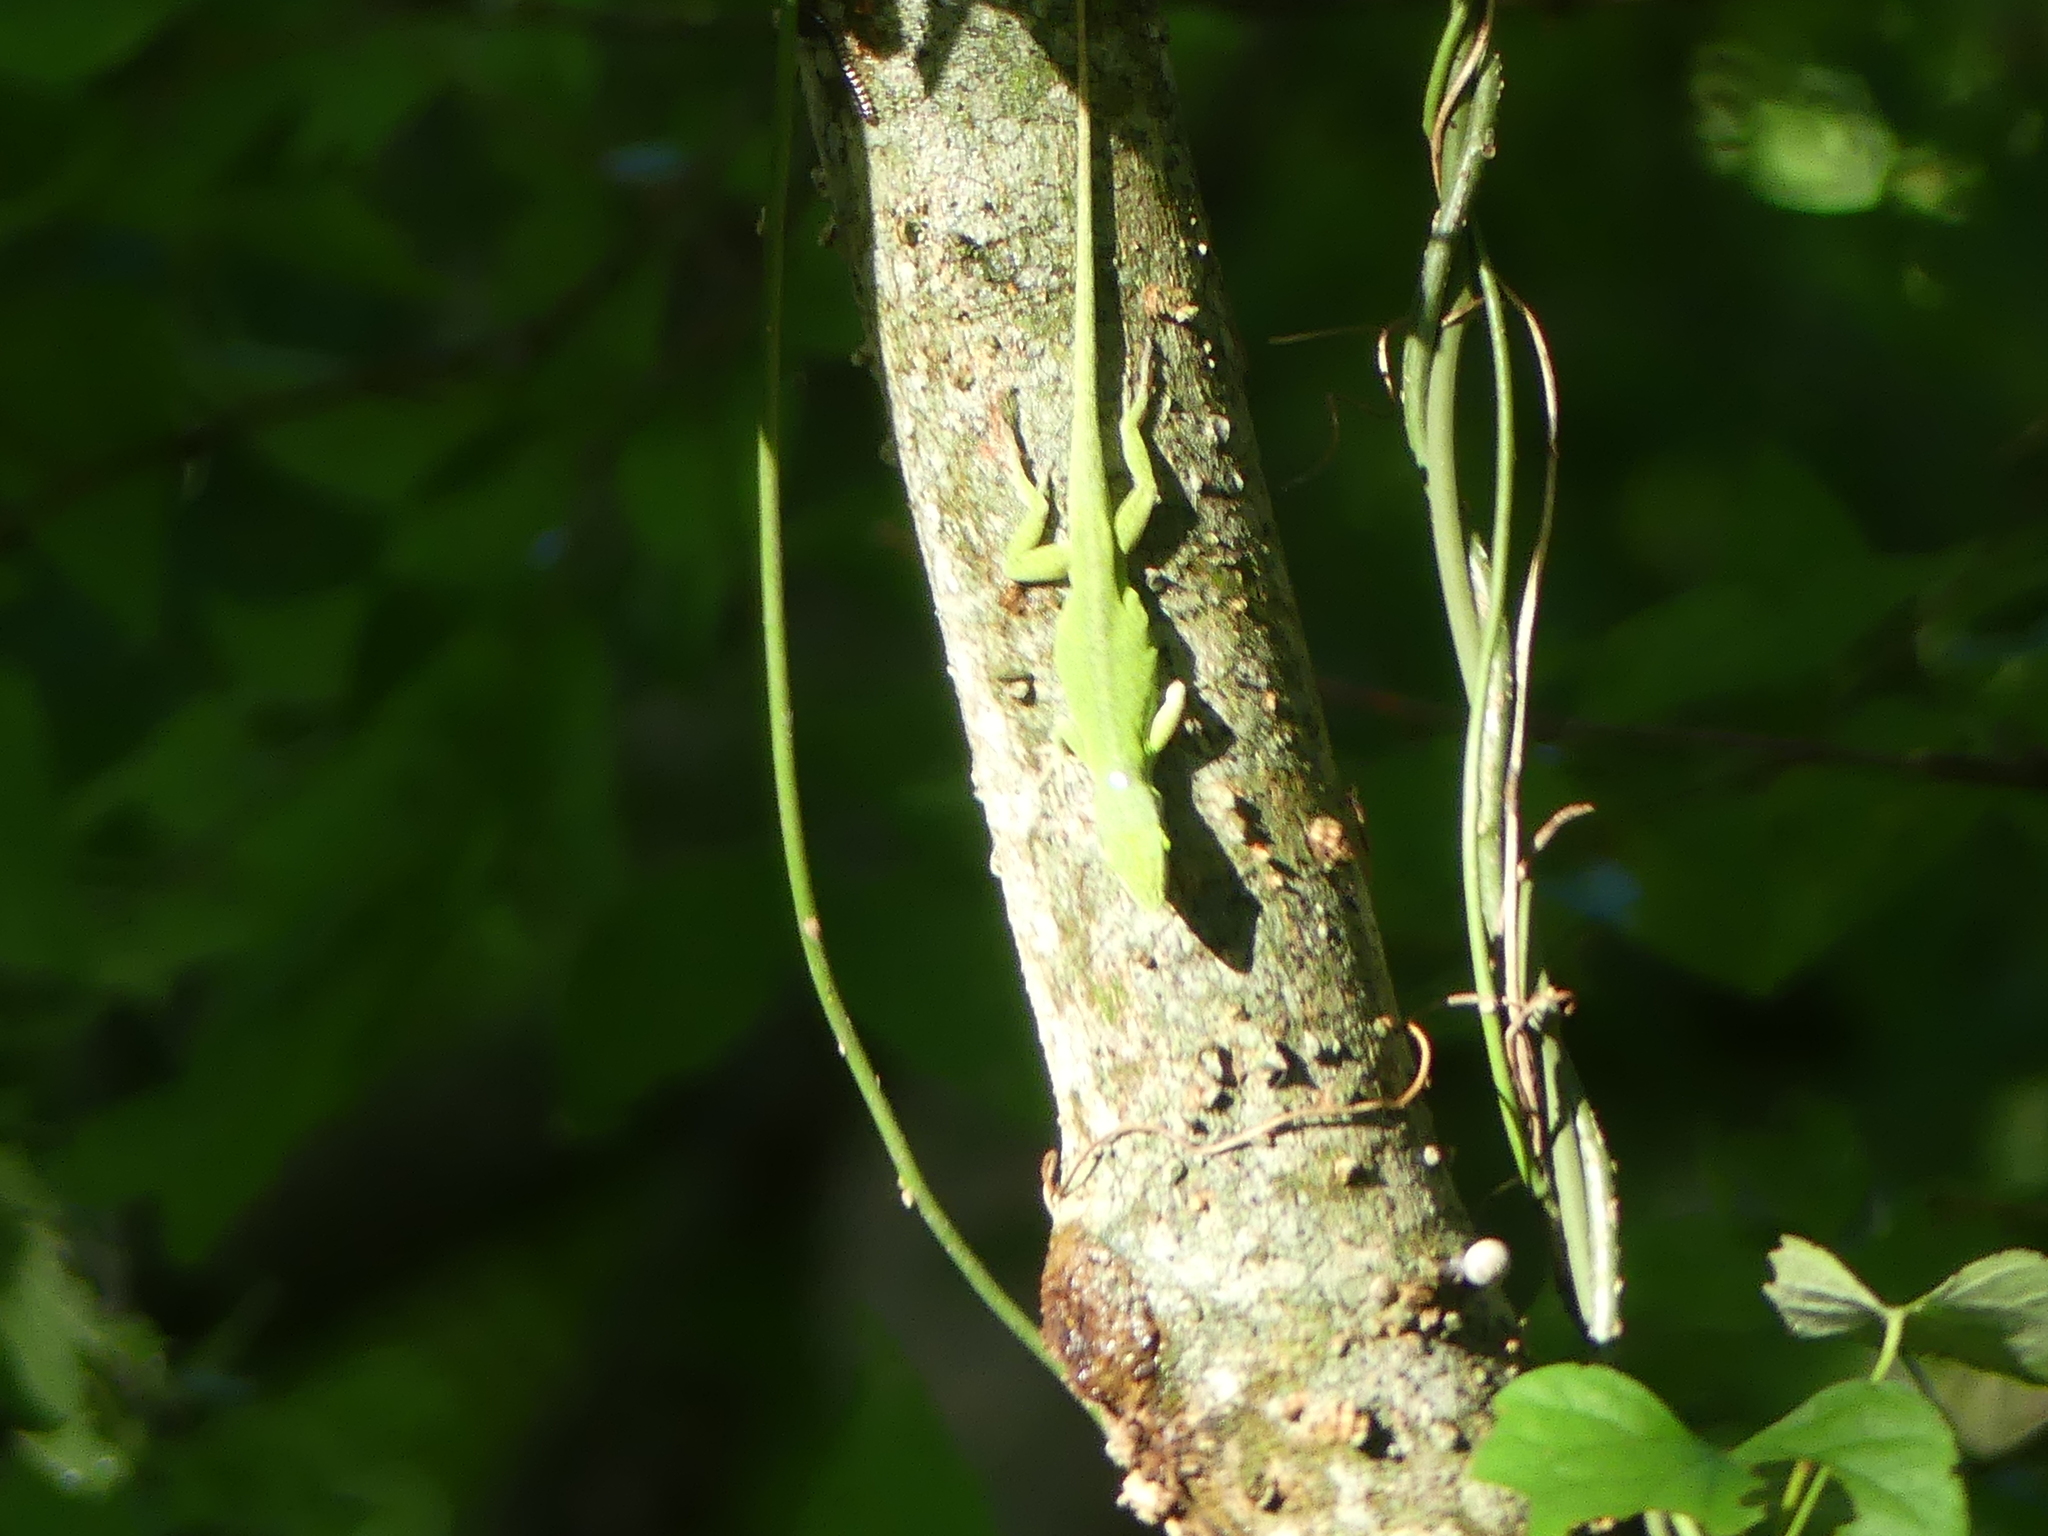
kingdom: Animalia
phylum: Chordata
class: Squamata
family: Dactyloidae
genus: Anolis
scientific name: Anolis carolinensis
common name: Green anole
